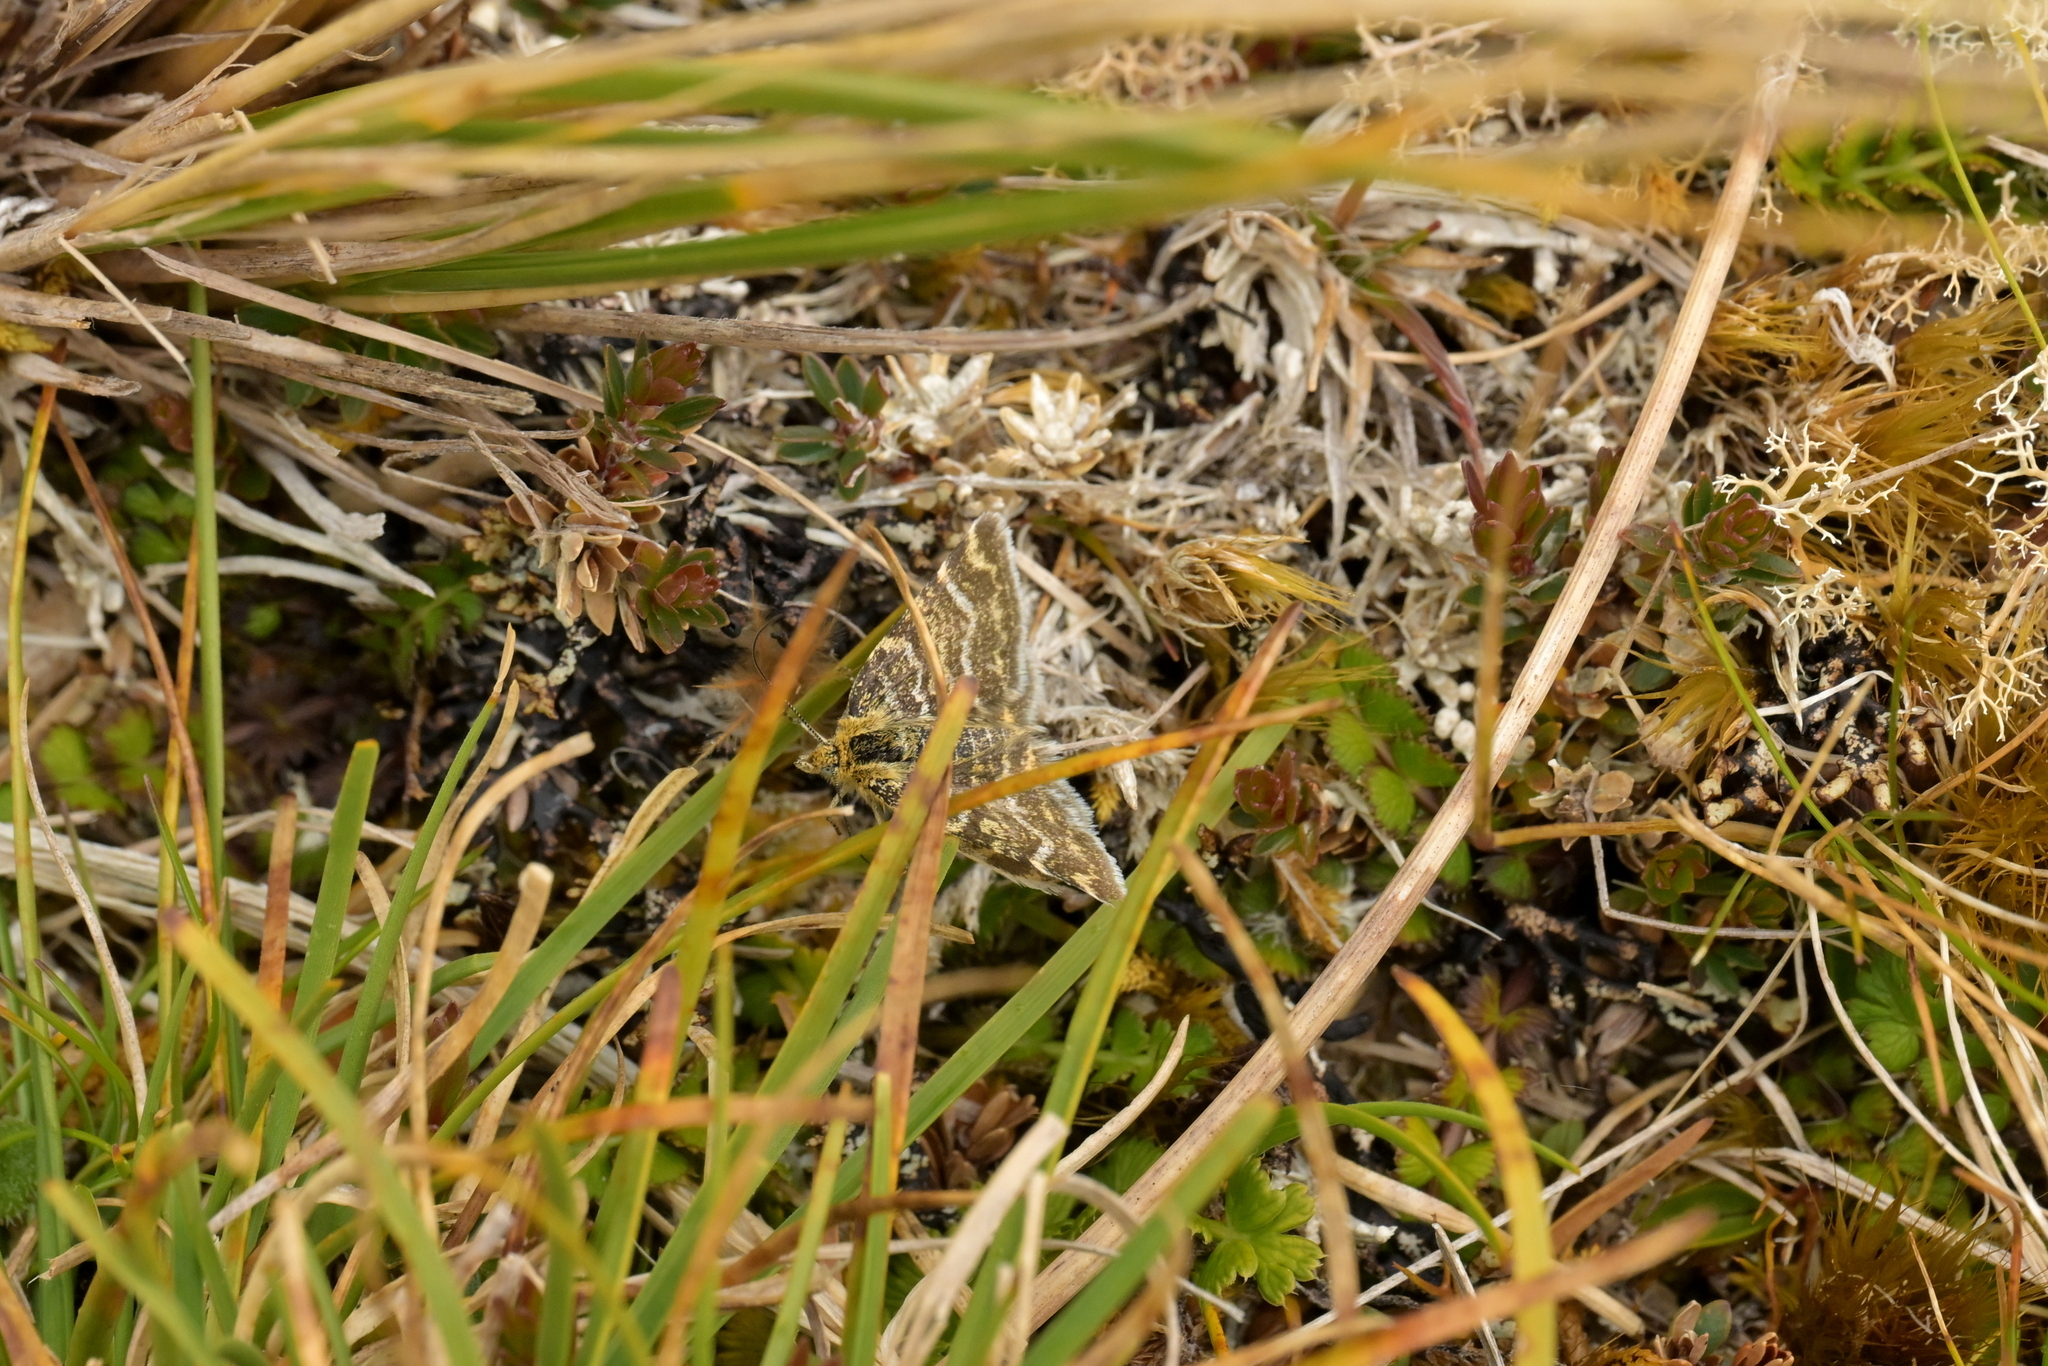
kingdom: Animalia
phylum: Arthropoda
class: Insecta
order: Lepidoptera
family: Geometridae
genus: Notoreas
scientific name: Notoreas atmogramma
